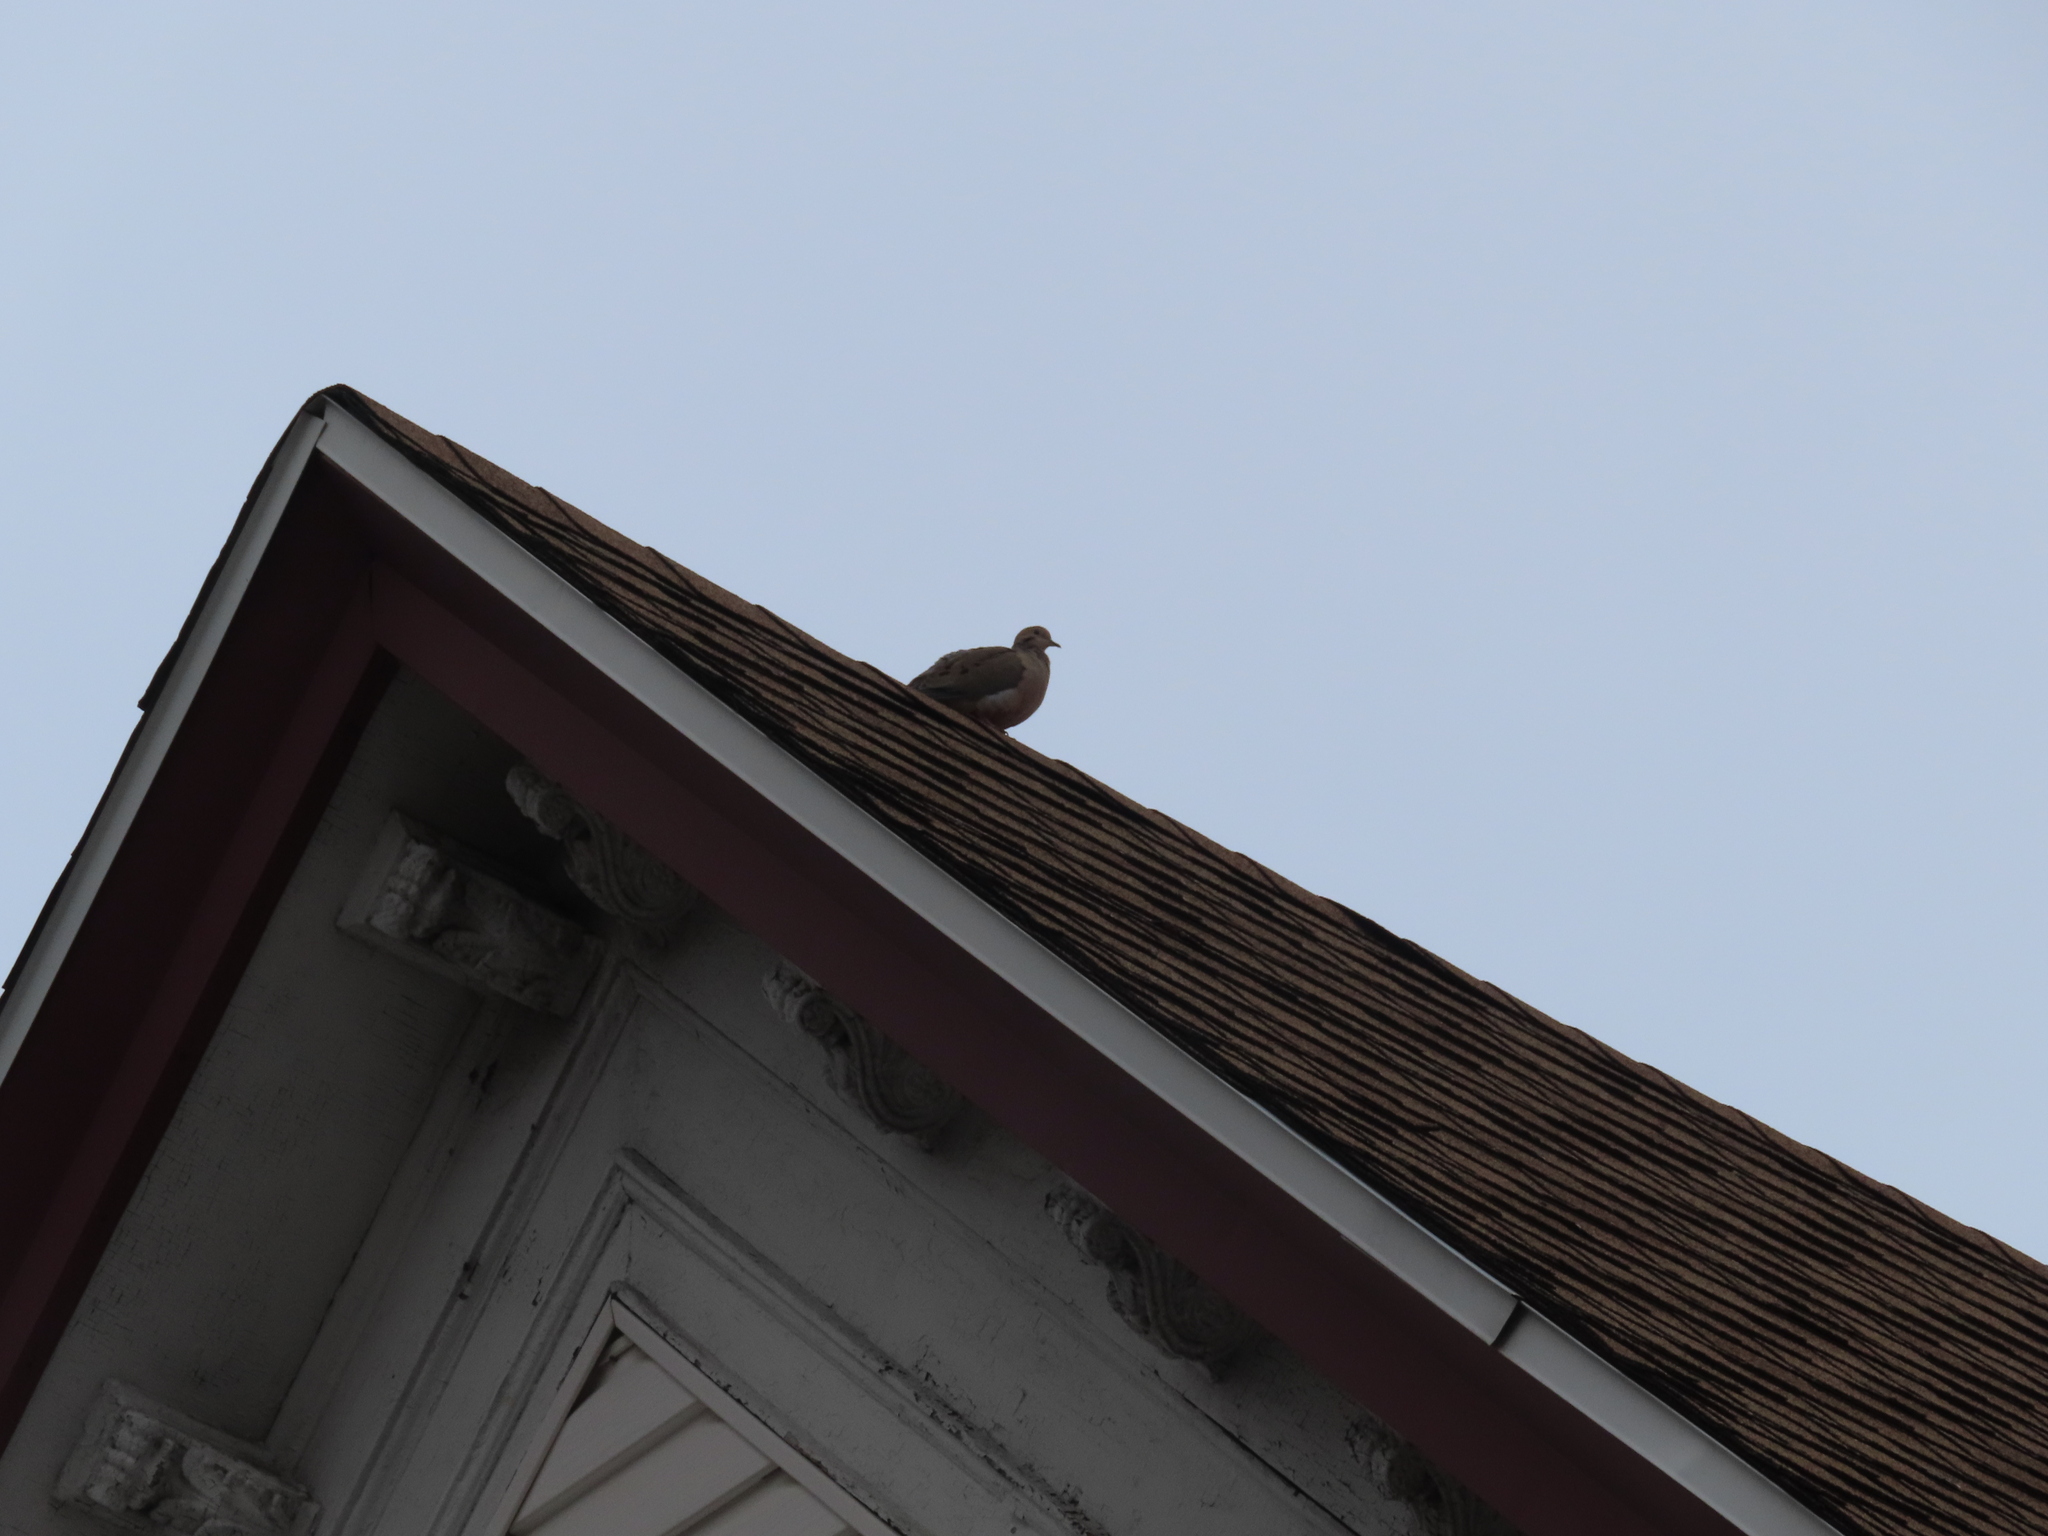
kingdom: Animalia
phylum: Chordata
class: Aves
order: Columbiformes
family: Columbidae
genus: Zenaida
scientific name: Zenaida macroura
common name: Mourning dove
